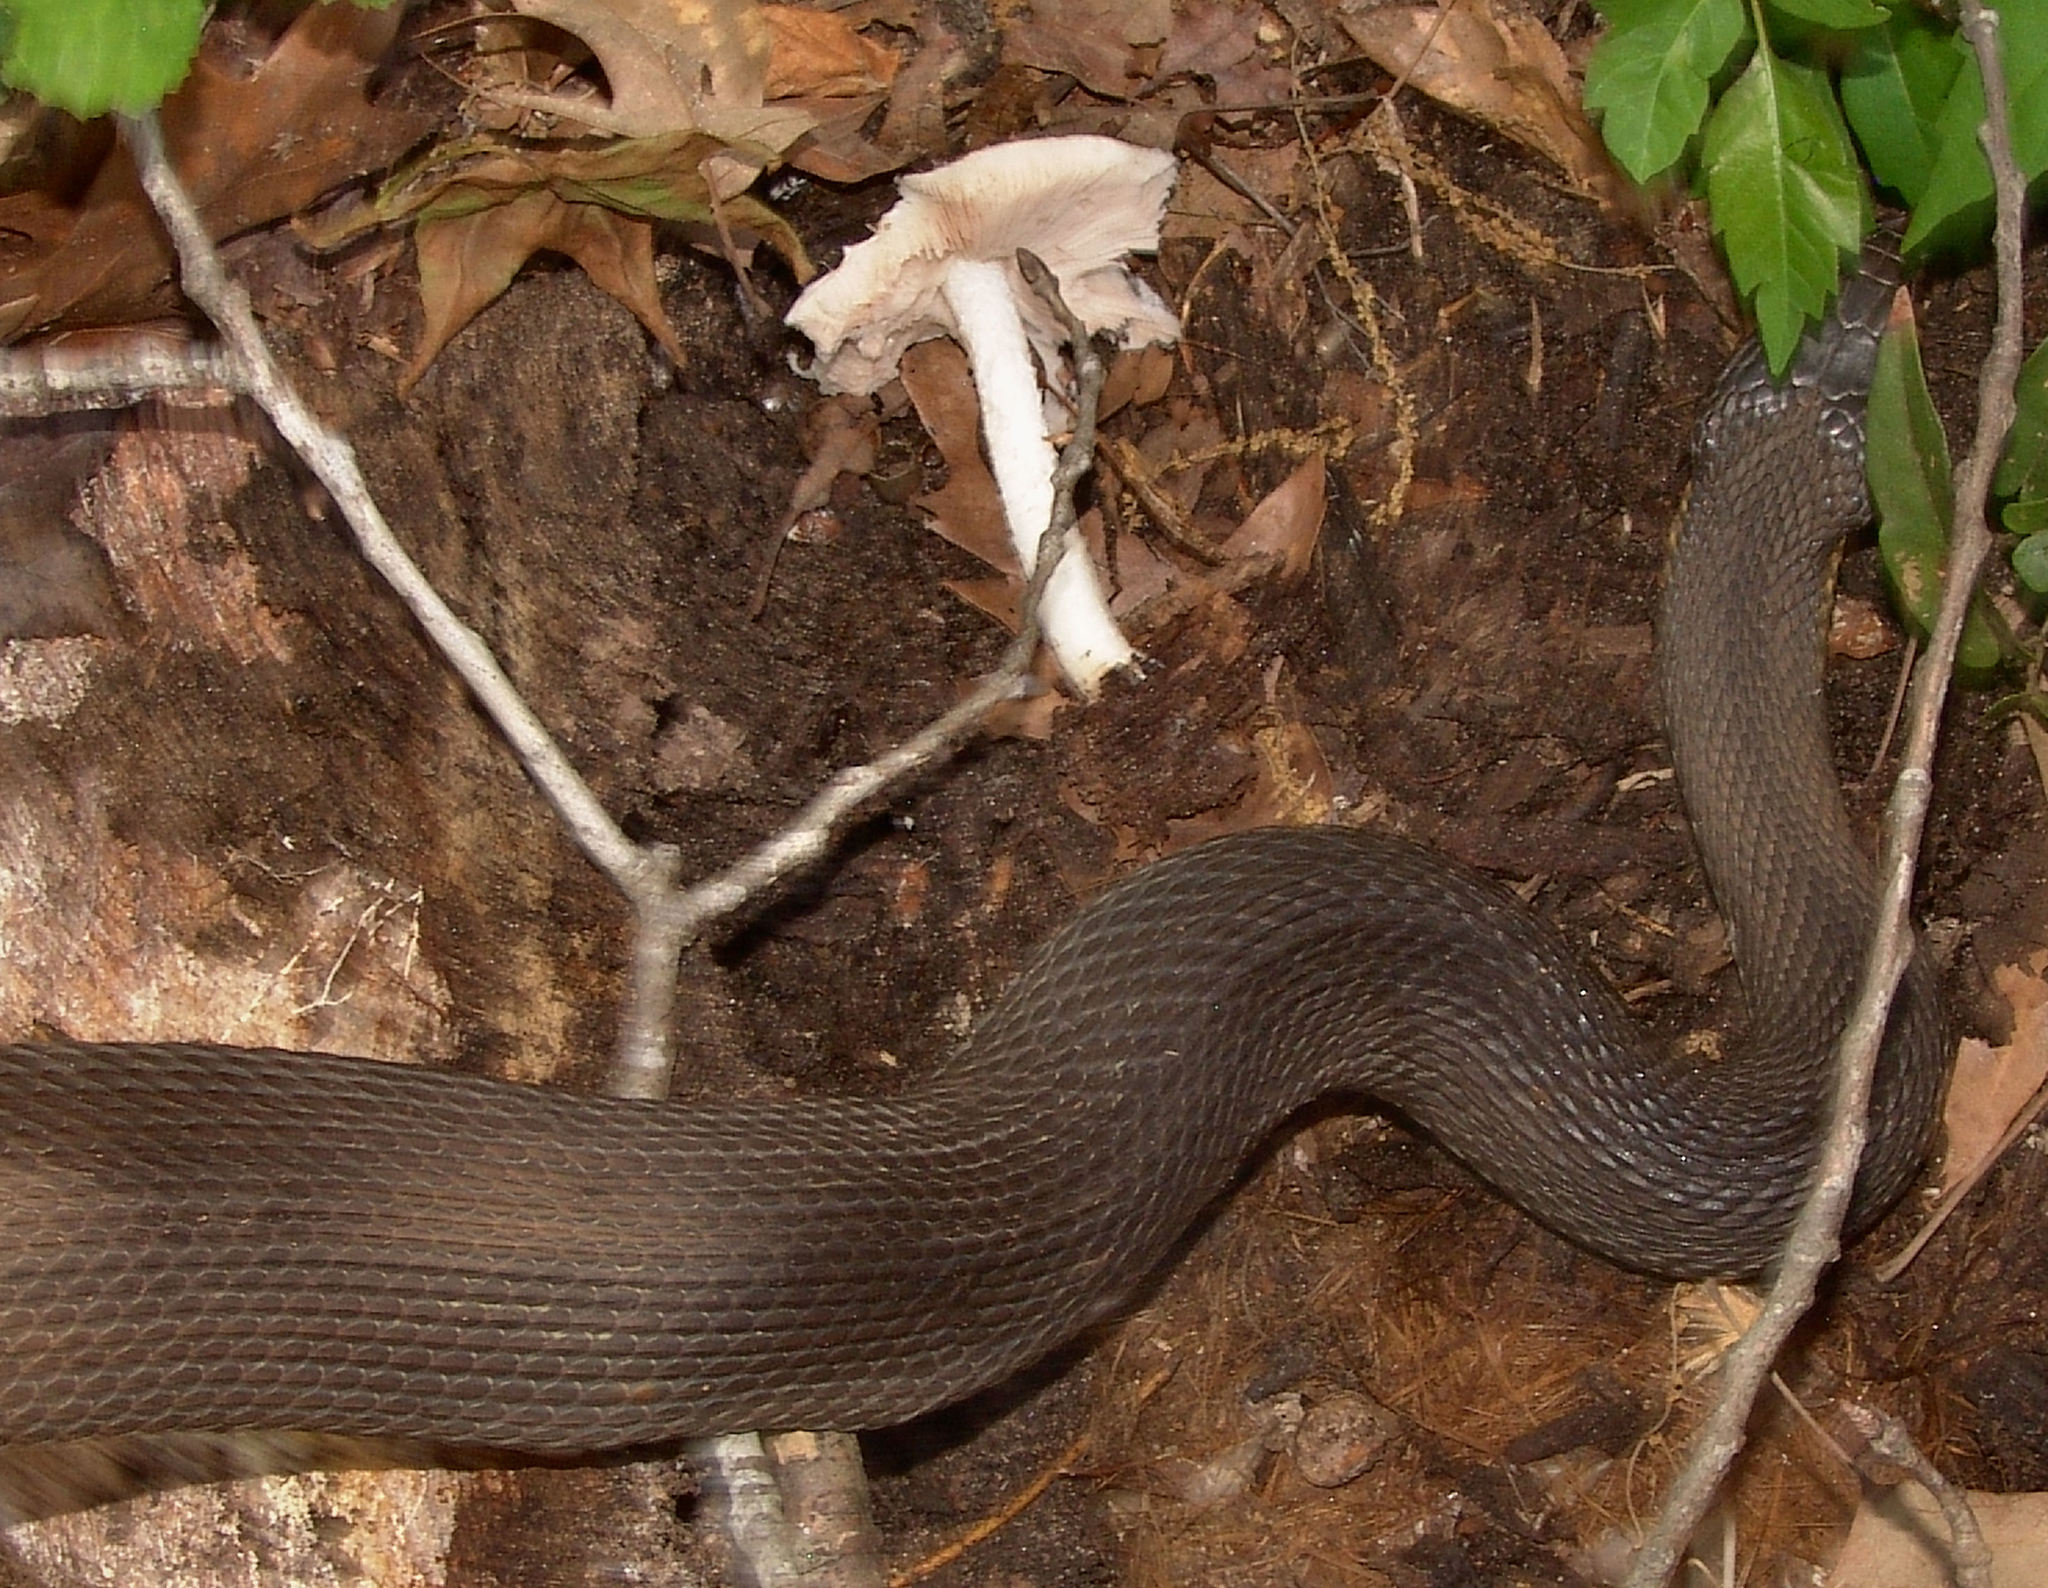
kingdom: Animalia
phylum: Chordata
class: Squamata
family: Colubridae
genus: Nerodia
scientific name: Nerodia erythrogaster
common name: Plainbelly water snake
